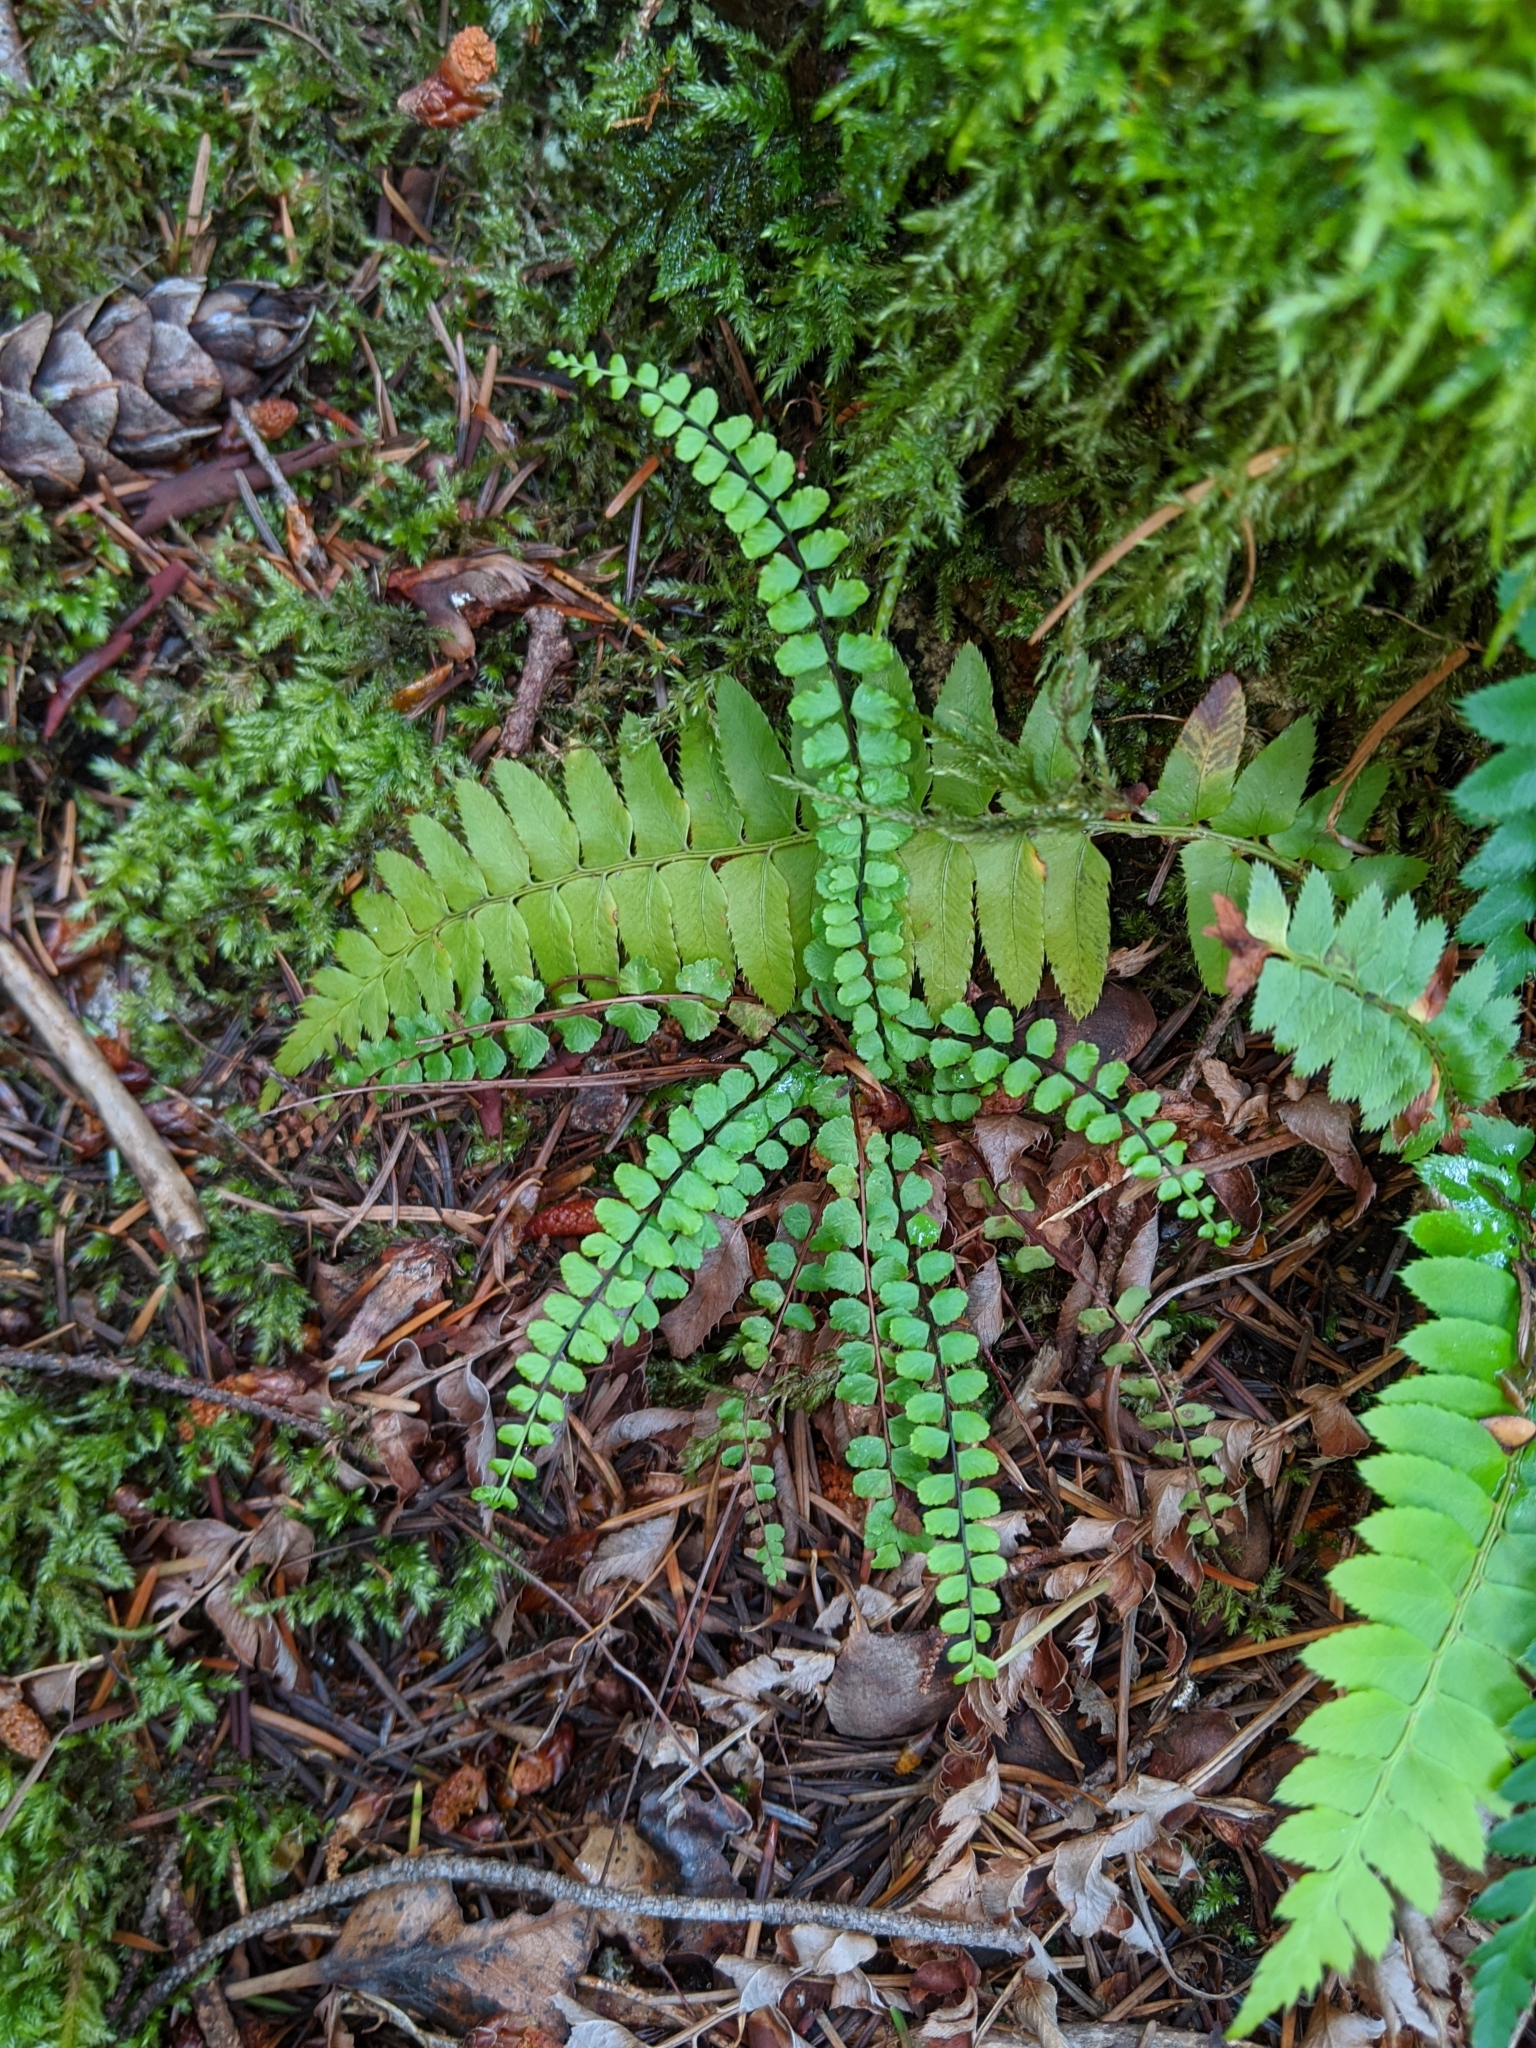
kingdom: Plantae
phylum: Tracheophyta
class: Polypodiopsida
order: Polypodiales
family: Aspleniaceae
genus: Asplenium
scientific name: Asplenium trichomanes
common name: Maidenhair spleenwort
